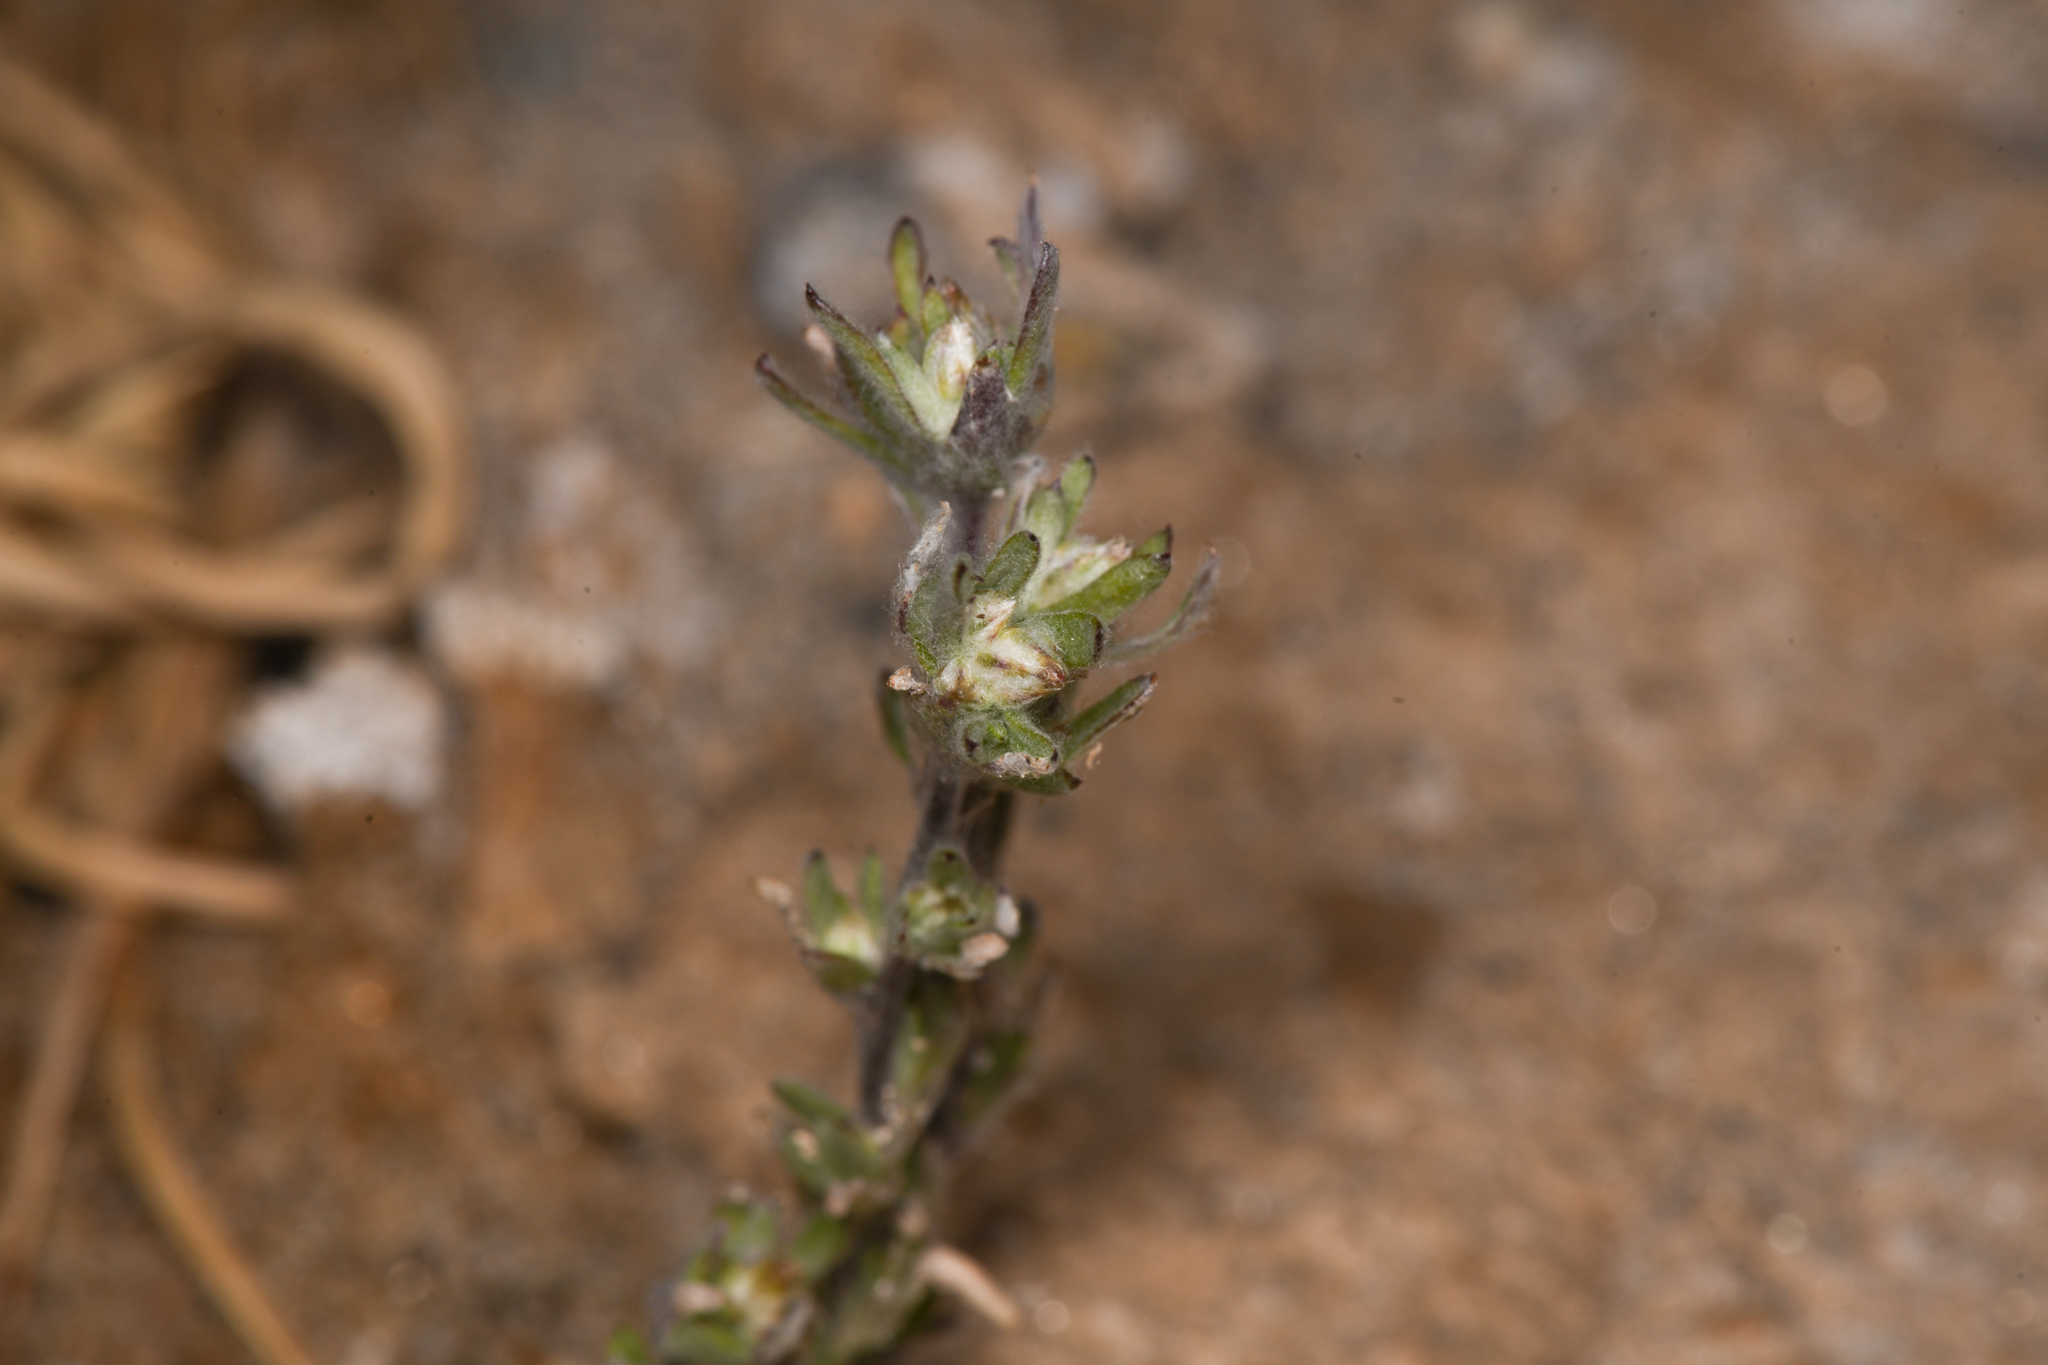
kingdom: Plantae
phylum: Tracheophyta
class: Magnoliopsida
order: Asterales
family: Asteraceae
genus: Logfia
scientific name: Logfia californica
